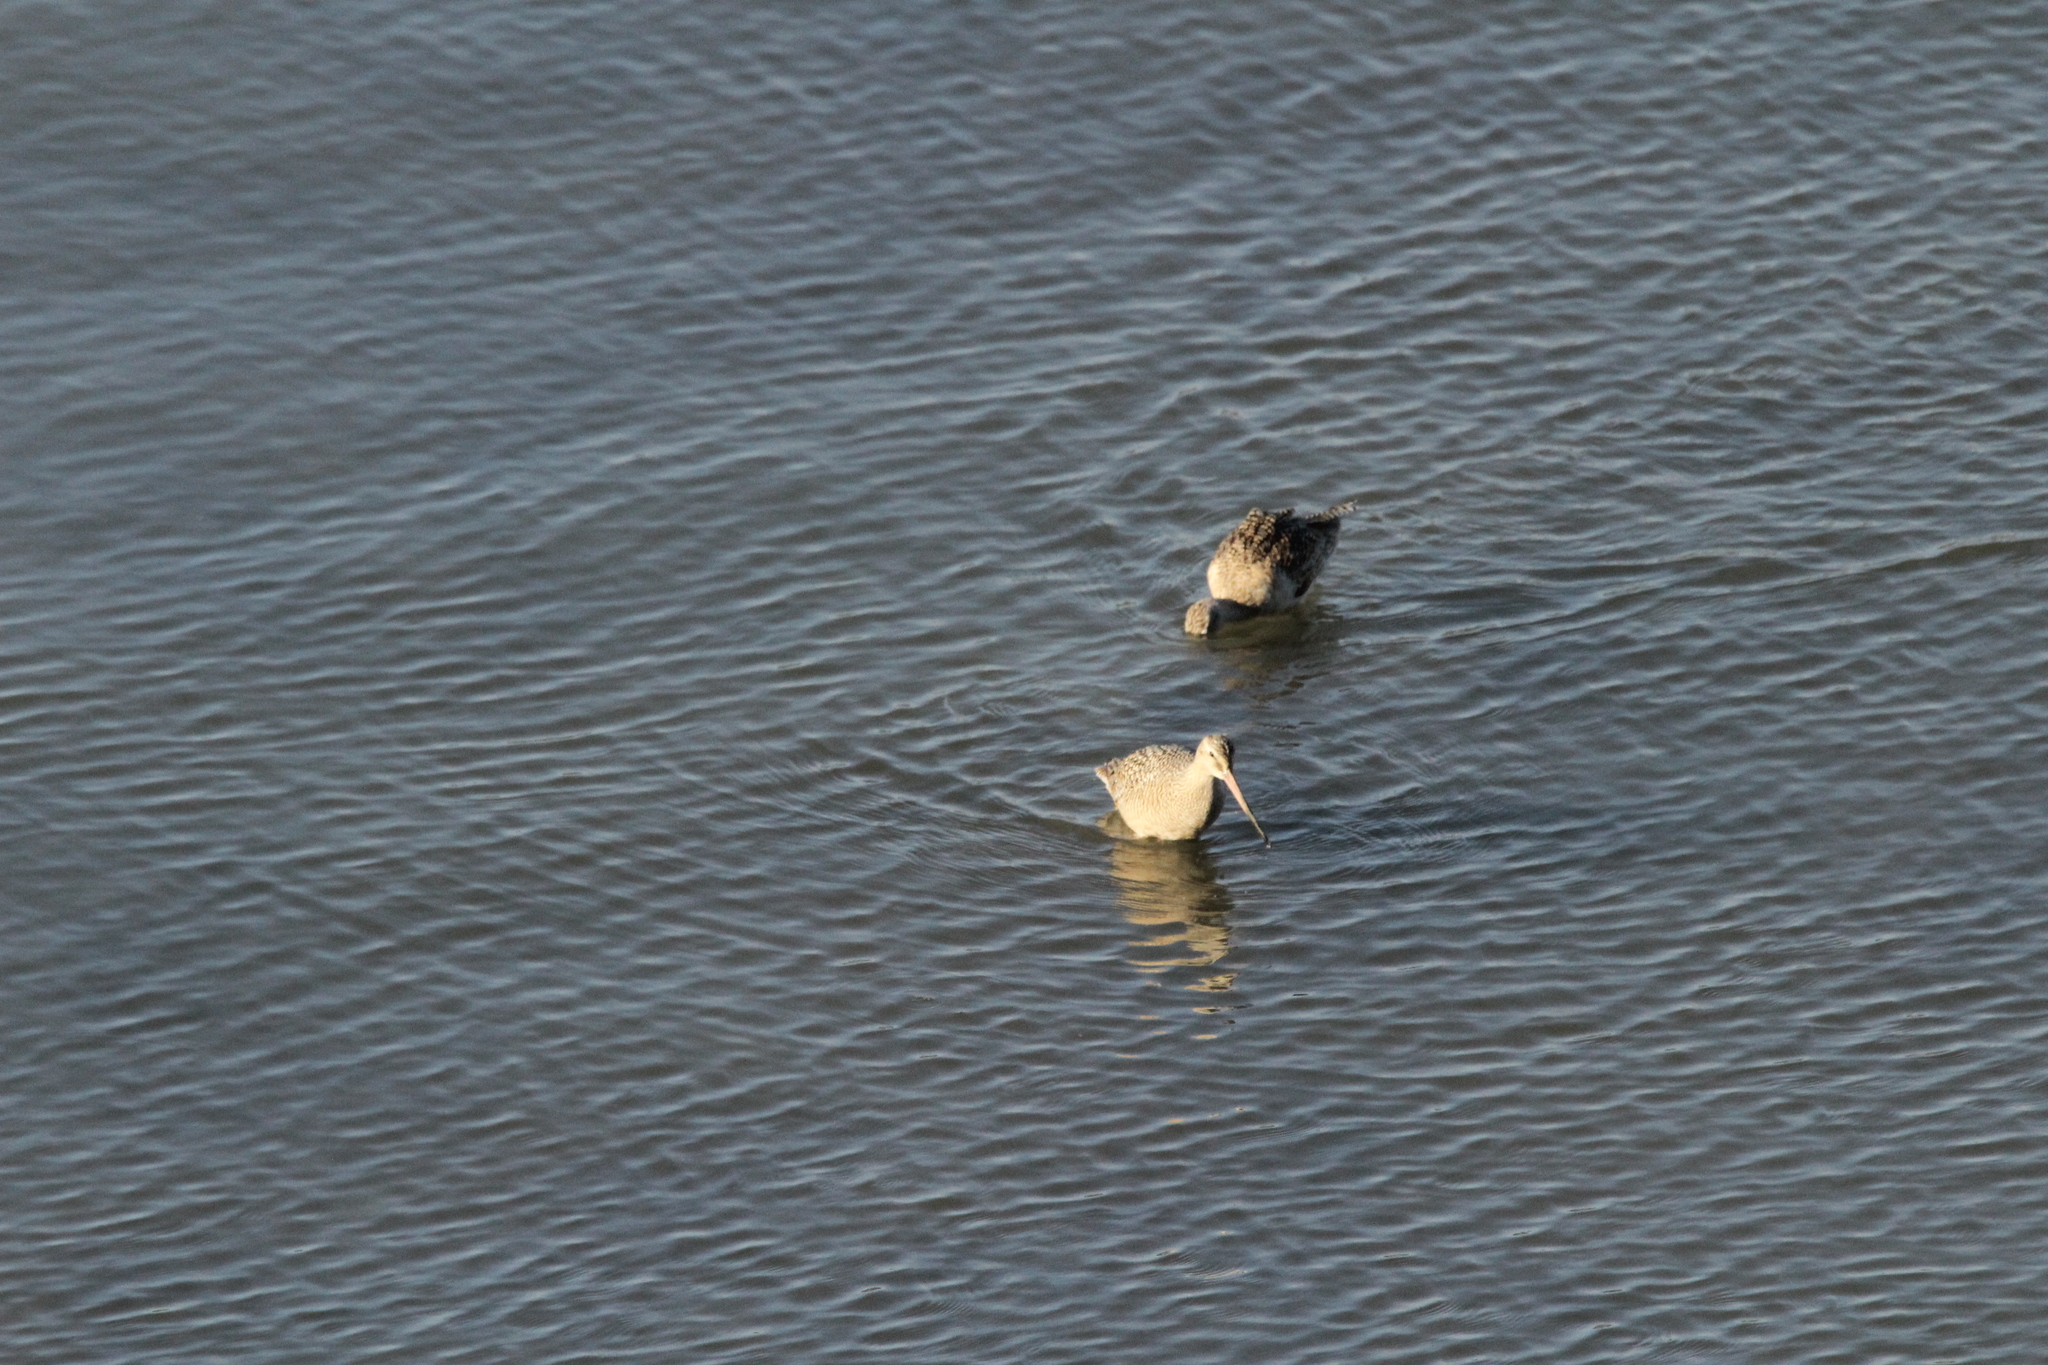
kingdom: Animalia
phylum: Chordata
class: Aves
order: Charadriiformes
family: Scolopacidae
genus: Tringa
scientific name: Tringa semipalmata
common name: Willet
